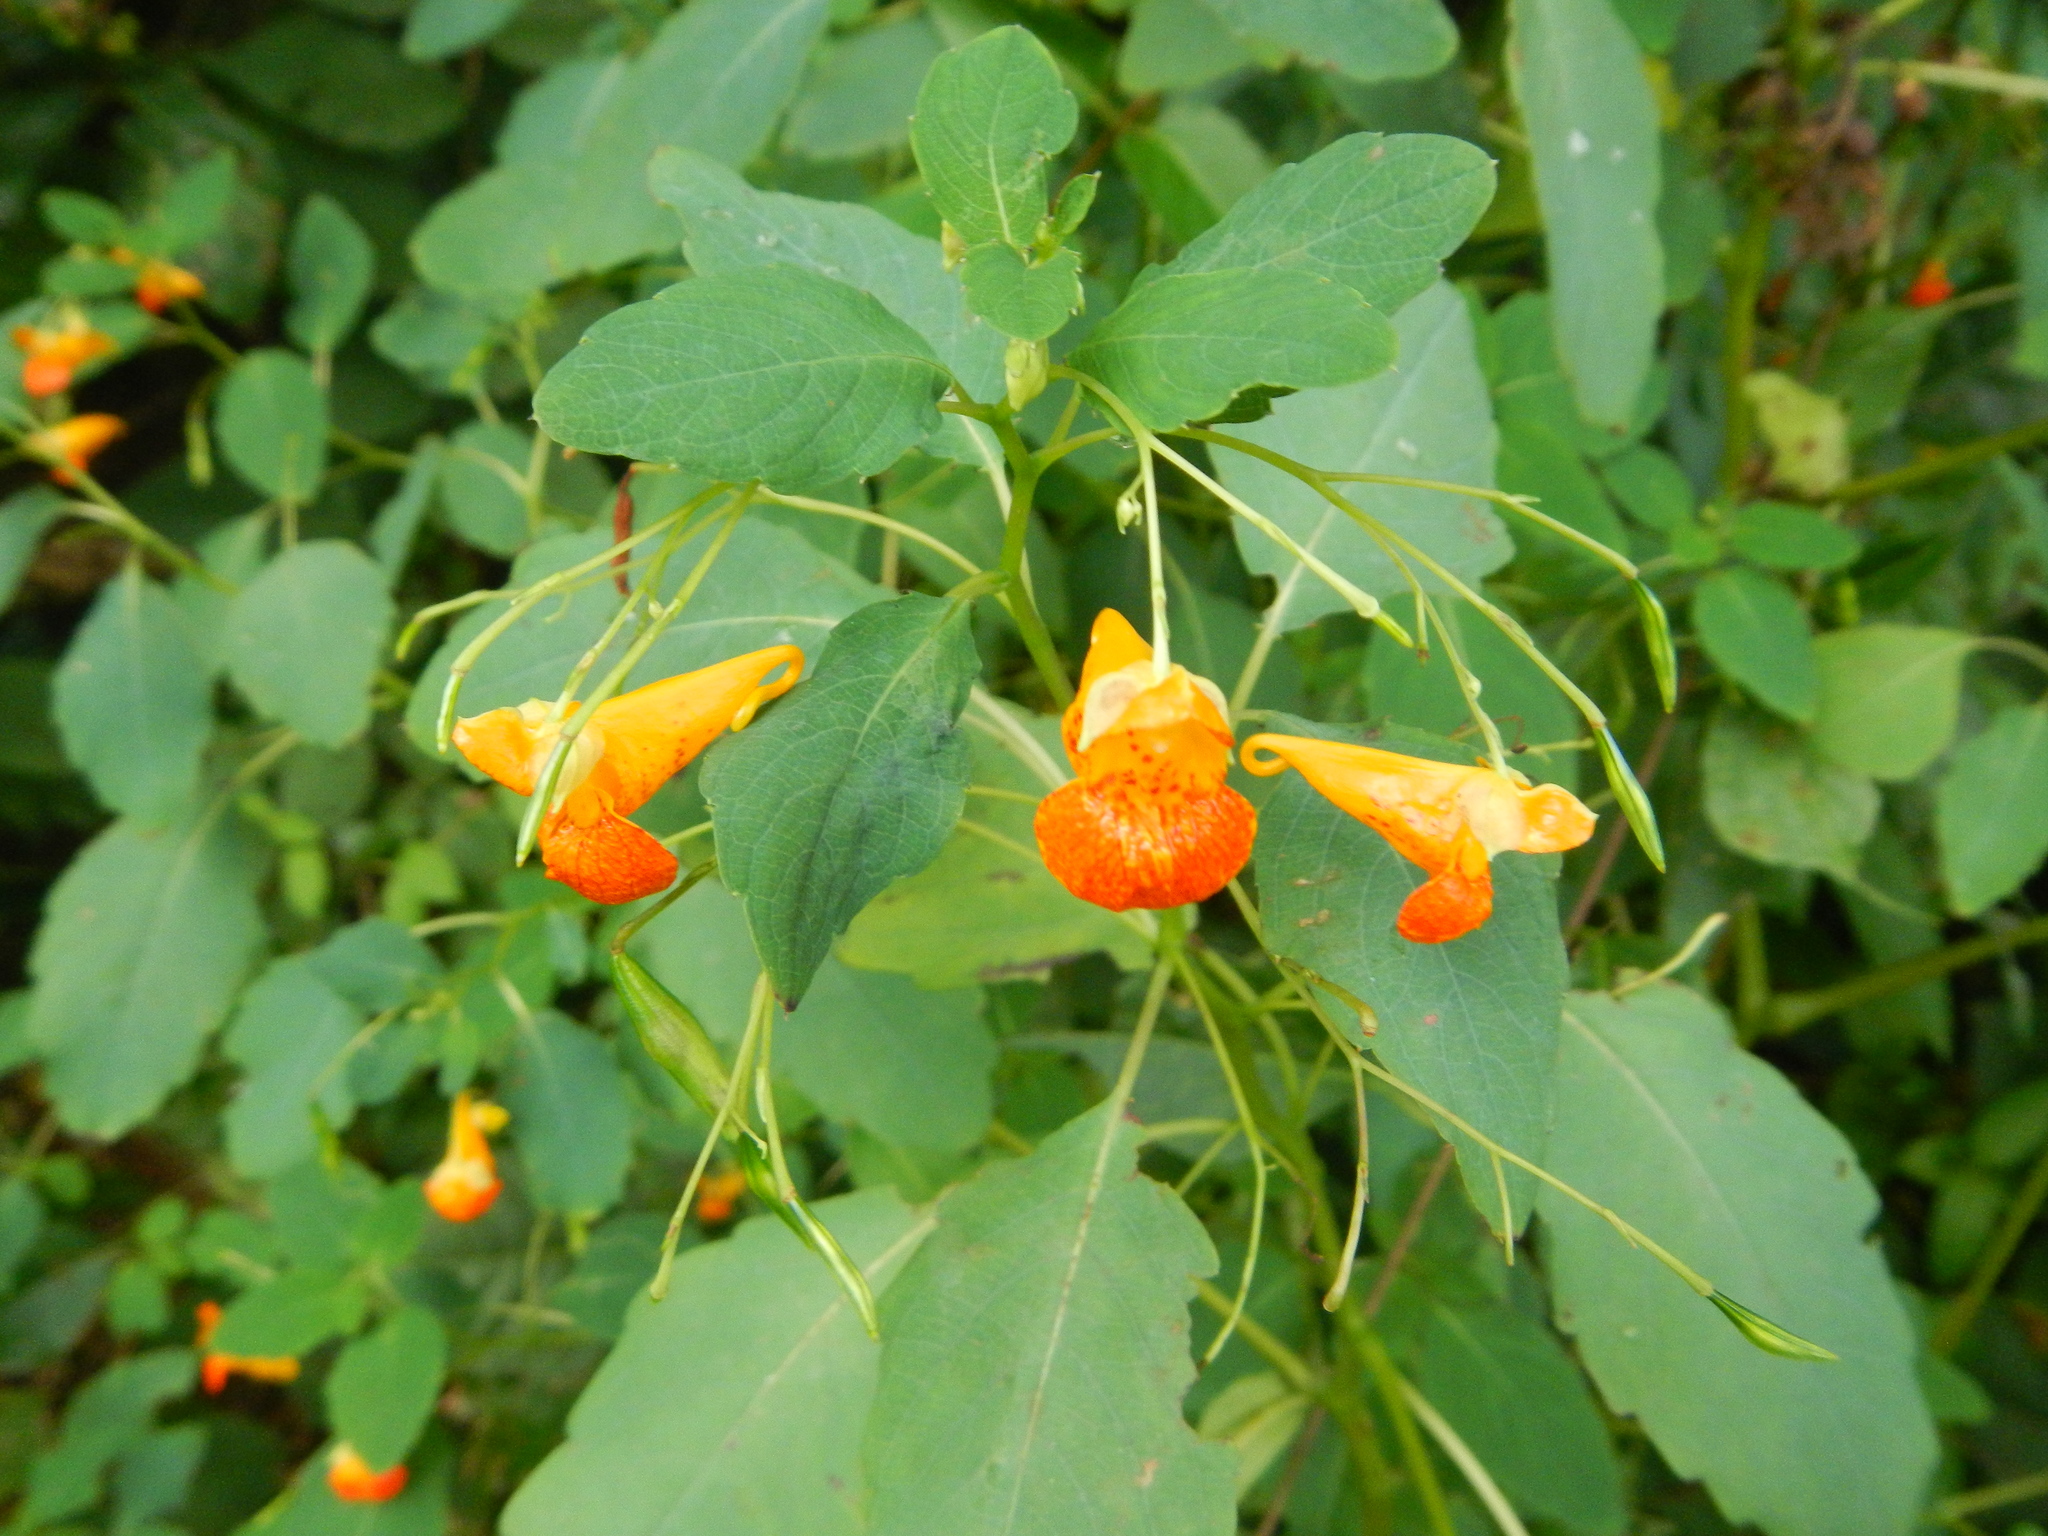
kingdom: Plantae
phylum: Tracheophyta
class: Magnoliopsida
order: Ericales
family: Balsaminaceae
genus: Impatiens
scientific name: Impatiens capensis
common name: Orange balsam
